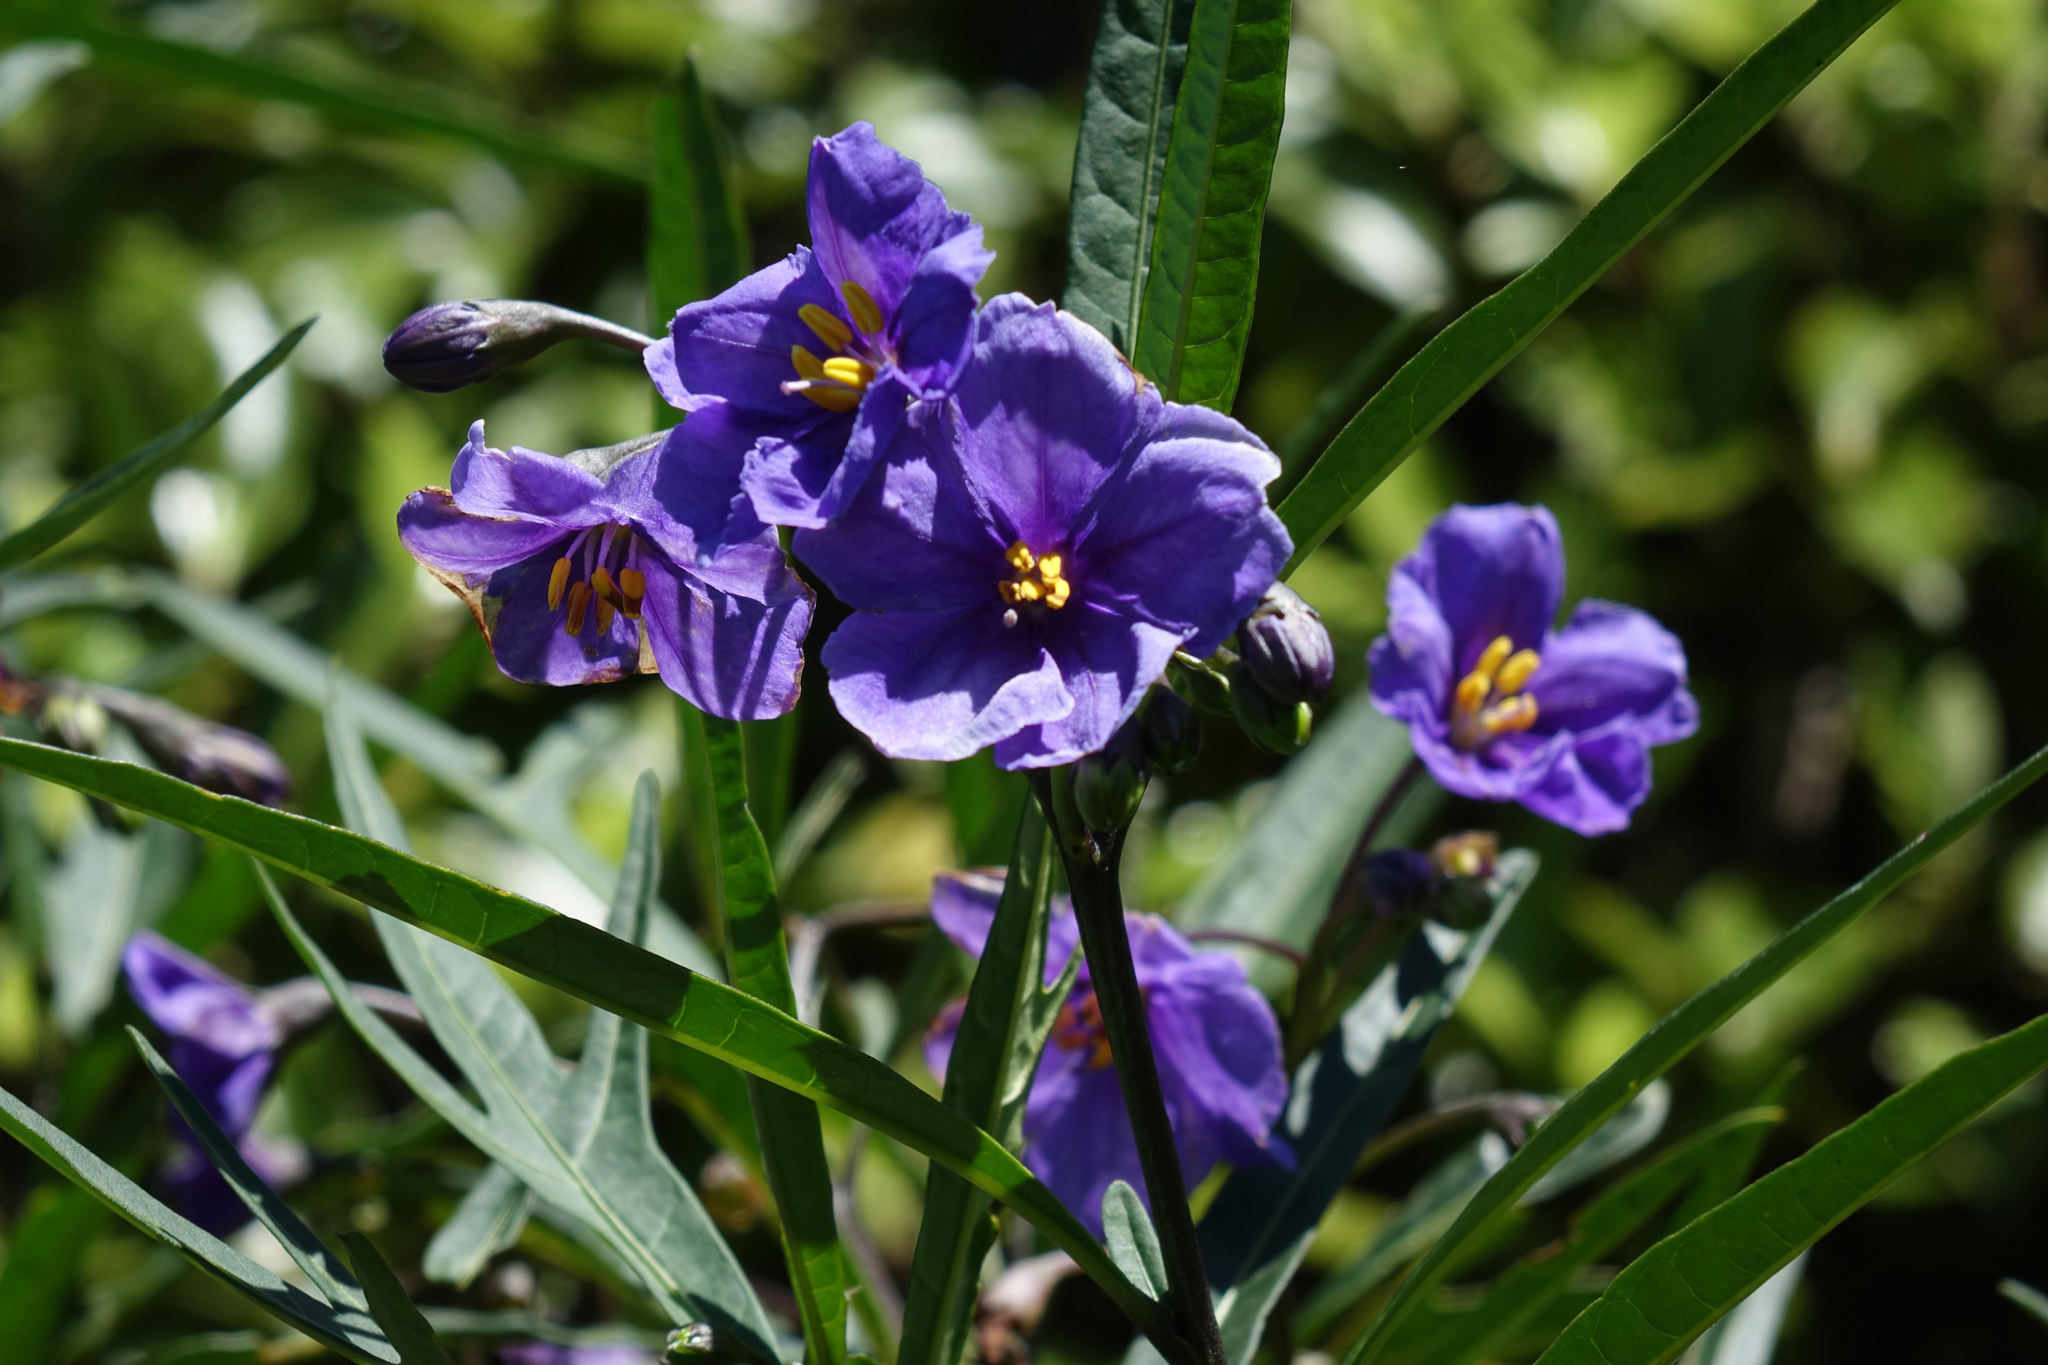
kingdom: Plantae
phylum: Tracheophyta
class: Magnoliopsida
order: Solanales
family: Solanaceae
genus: Solanum
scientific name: Solanum laciniatum
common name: Kangaroo-apple
